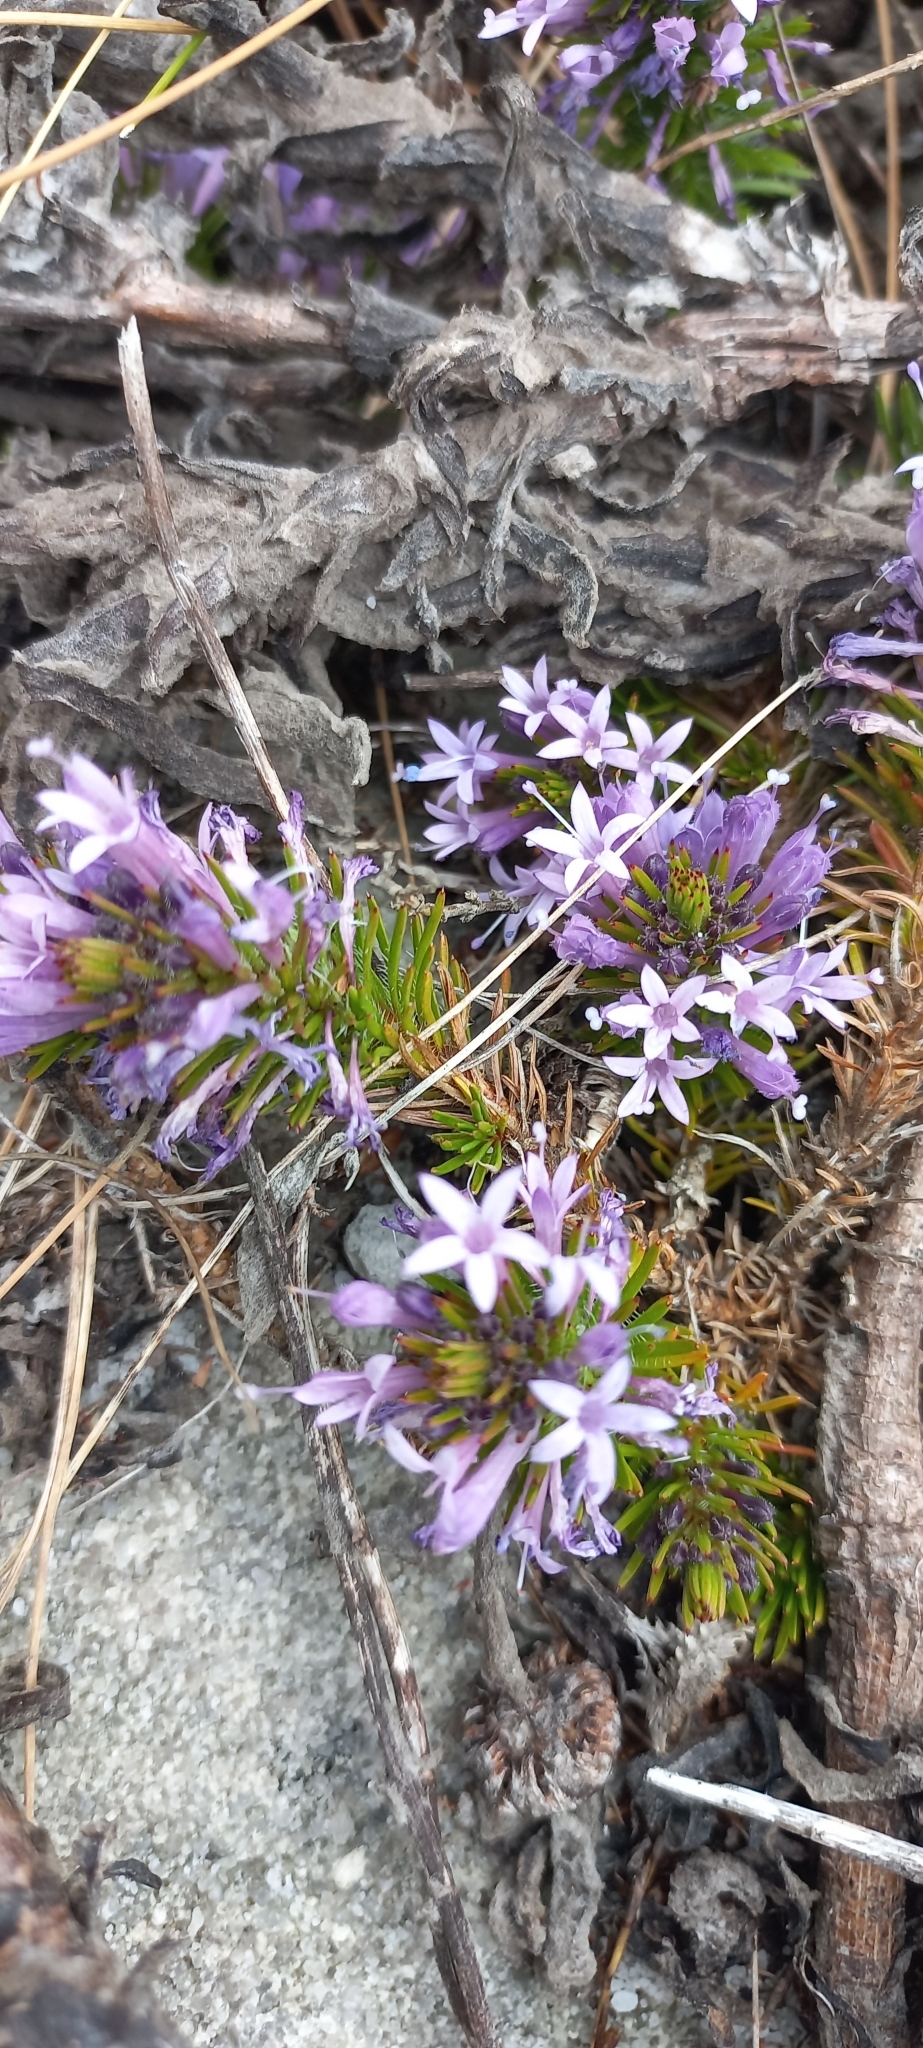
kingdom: Plantae
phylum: Tracheophyta
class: Magnoliopsida
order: Asterales
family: Campanulaceae
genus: Merciera
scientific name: Merciera azurea
